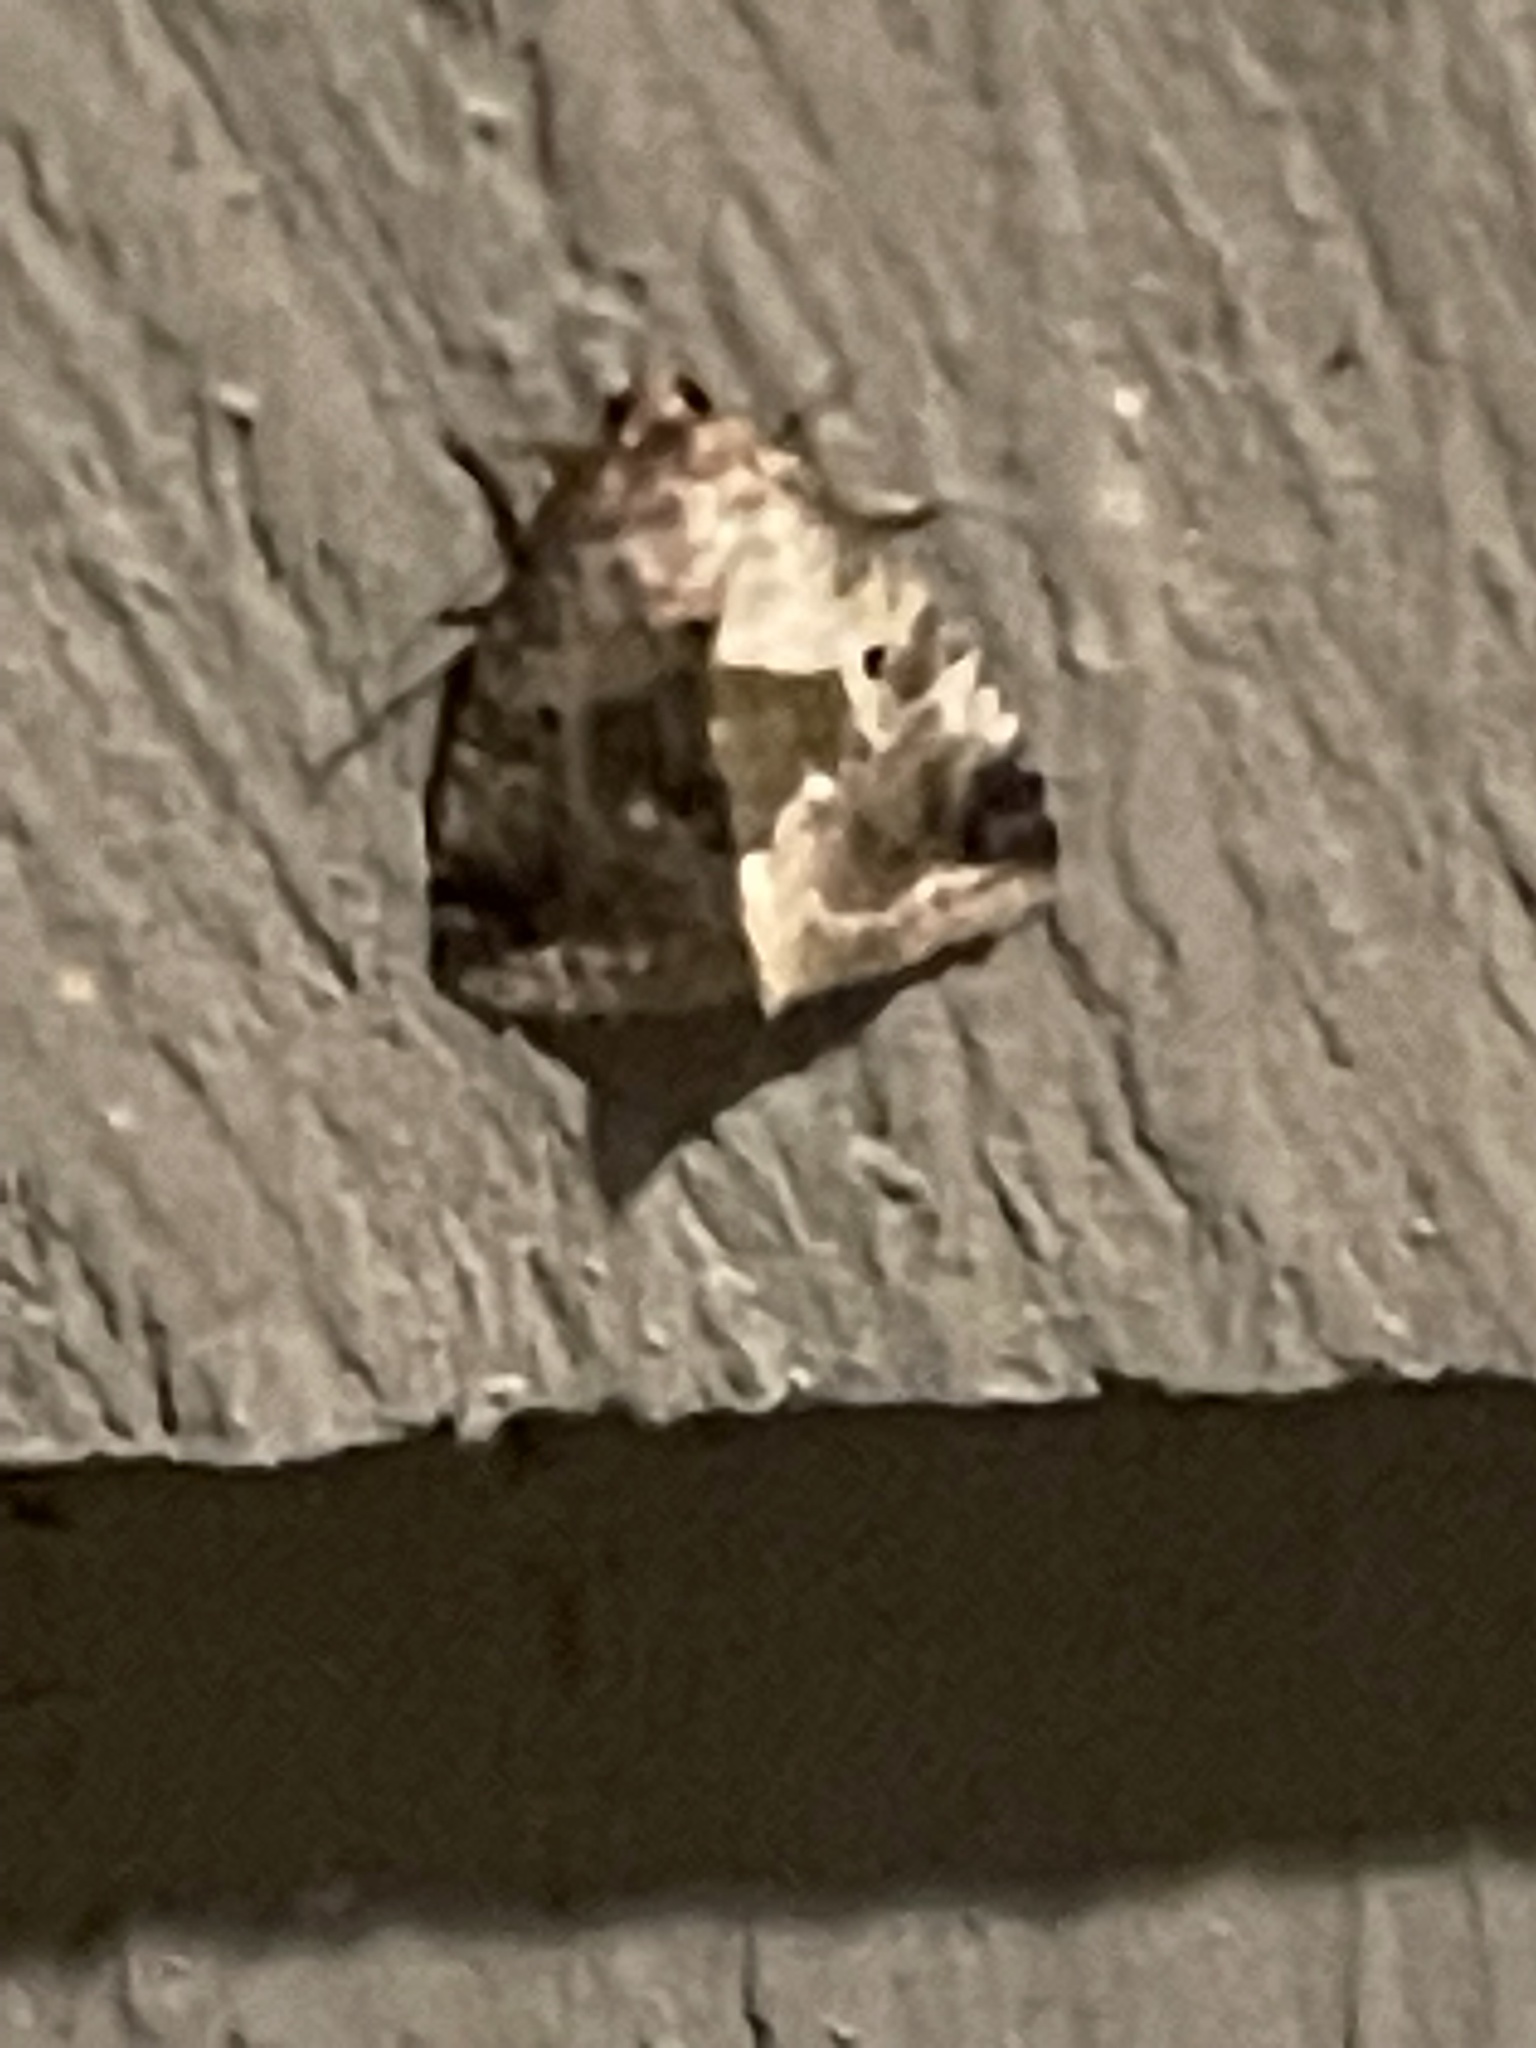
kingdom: Animalia
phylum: Arthropoda
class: Insecta
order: Lepidoptera
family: Noctuidae
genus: Maliattha
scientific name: Maliattha synochitis
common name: Black-dotted glyph
